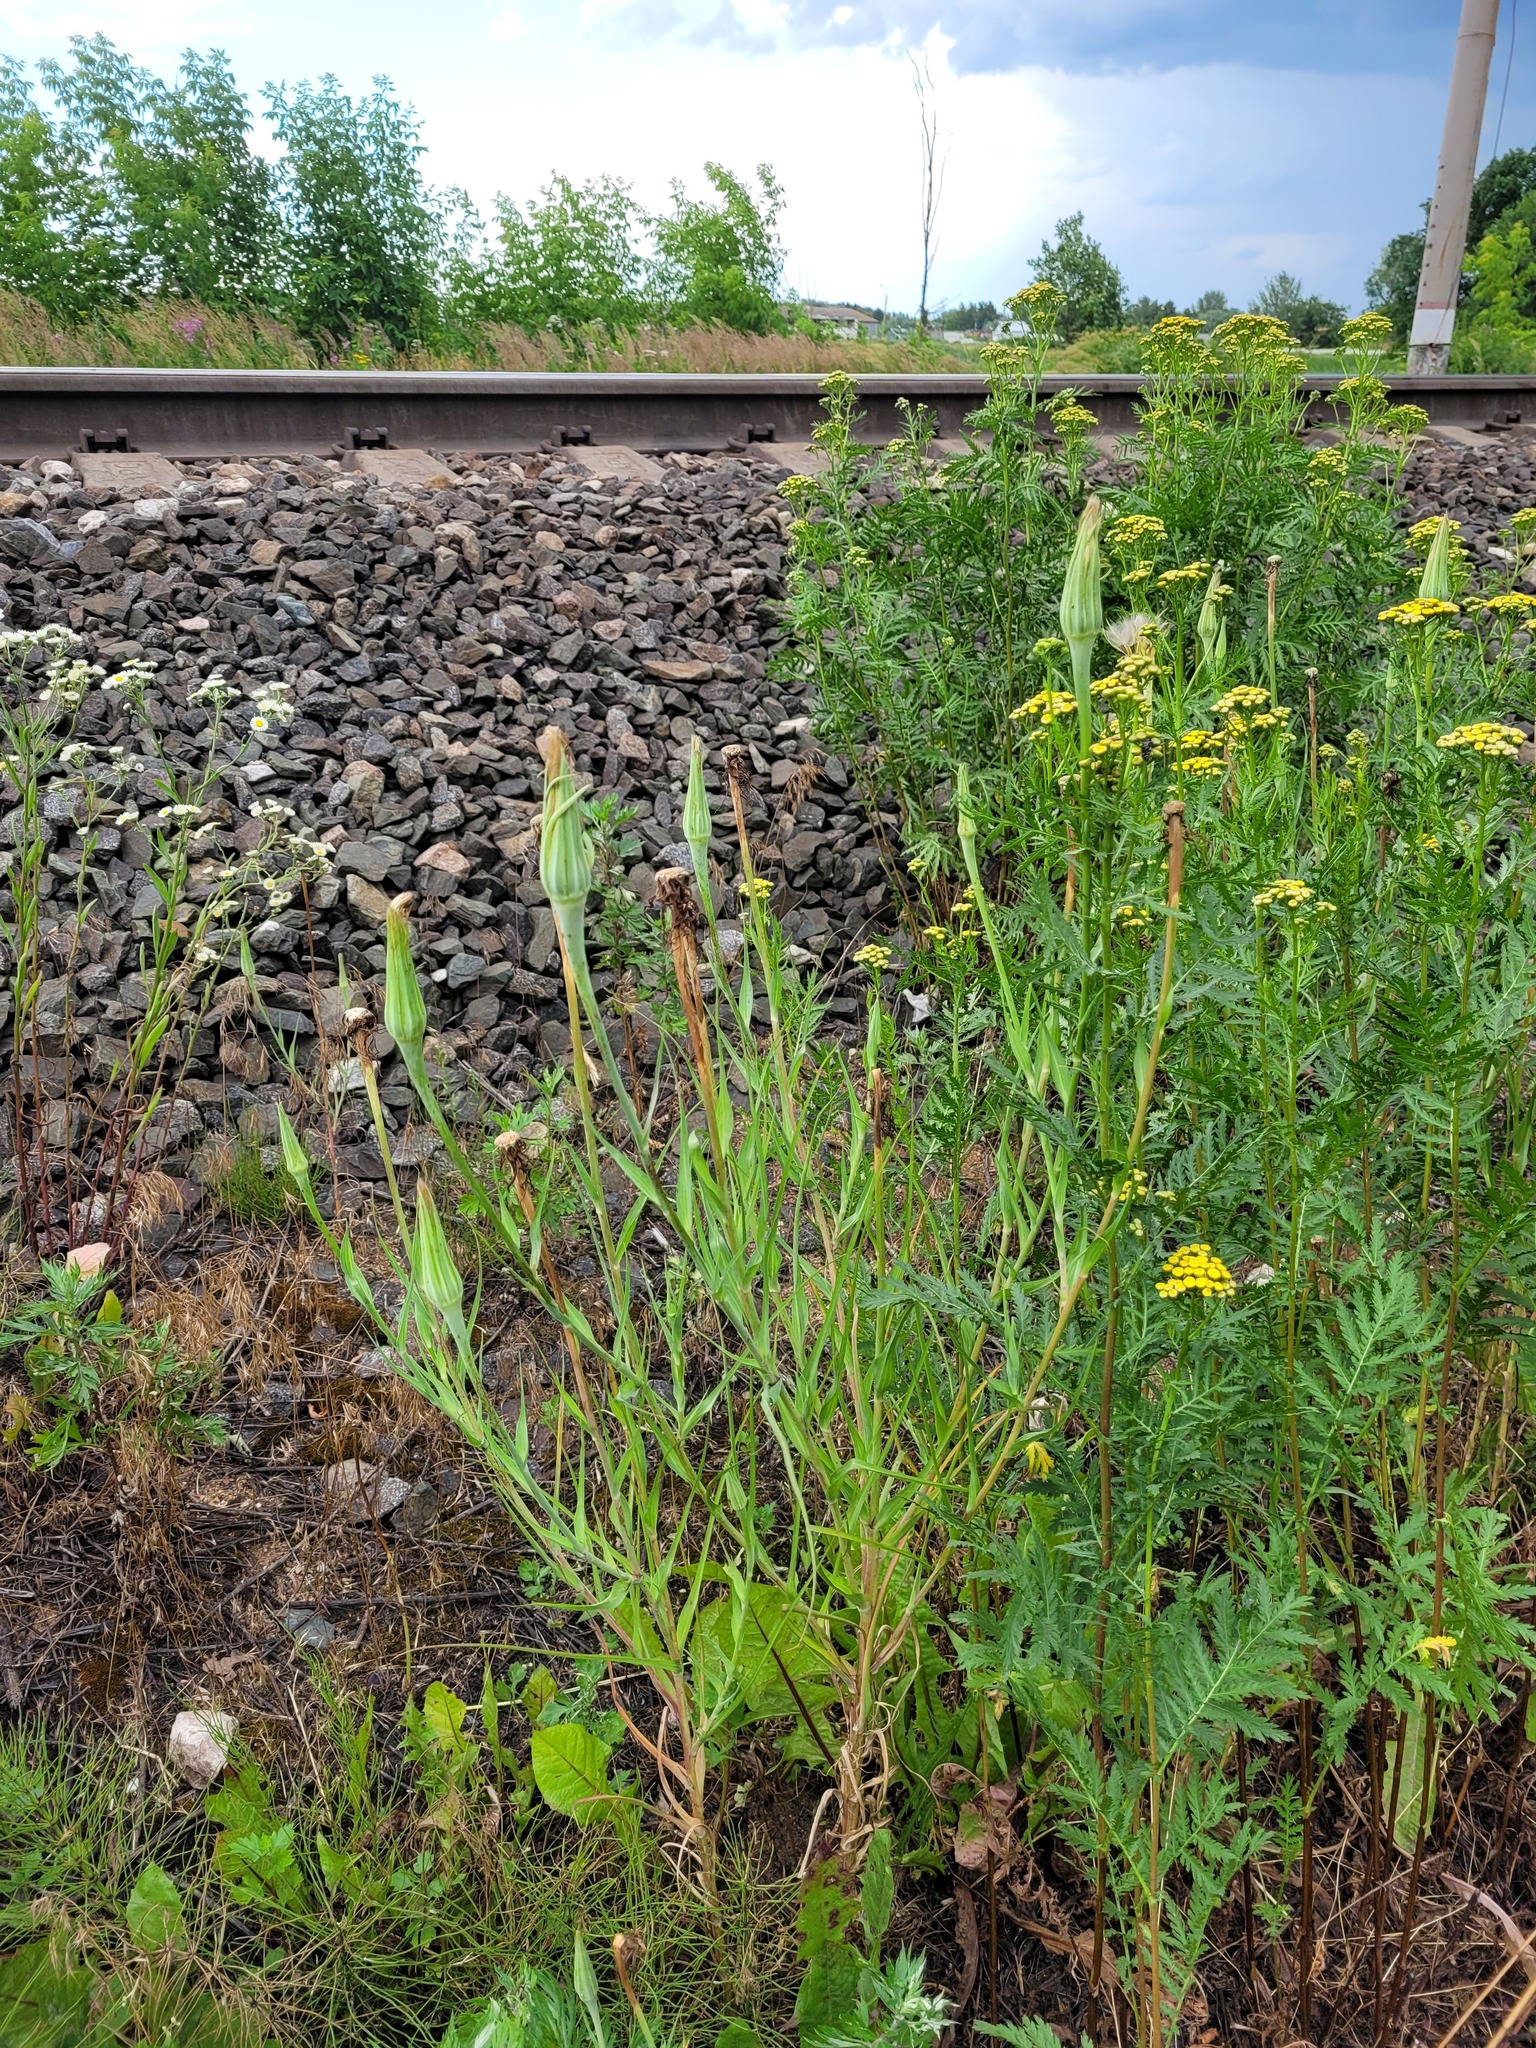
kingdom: Plantae
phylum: Tracheophyta
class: Magnoliopsida
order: Asterales
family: Asteraceae
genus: Tragopogon
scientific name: Tragopogon dubius
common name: Yellow salsify
